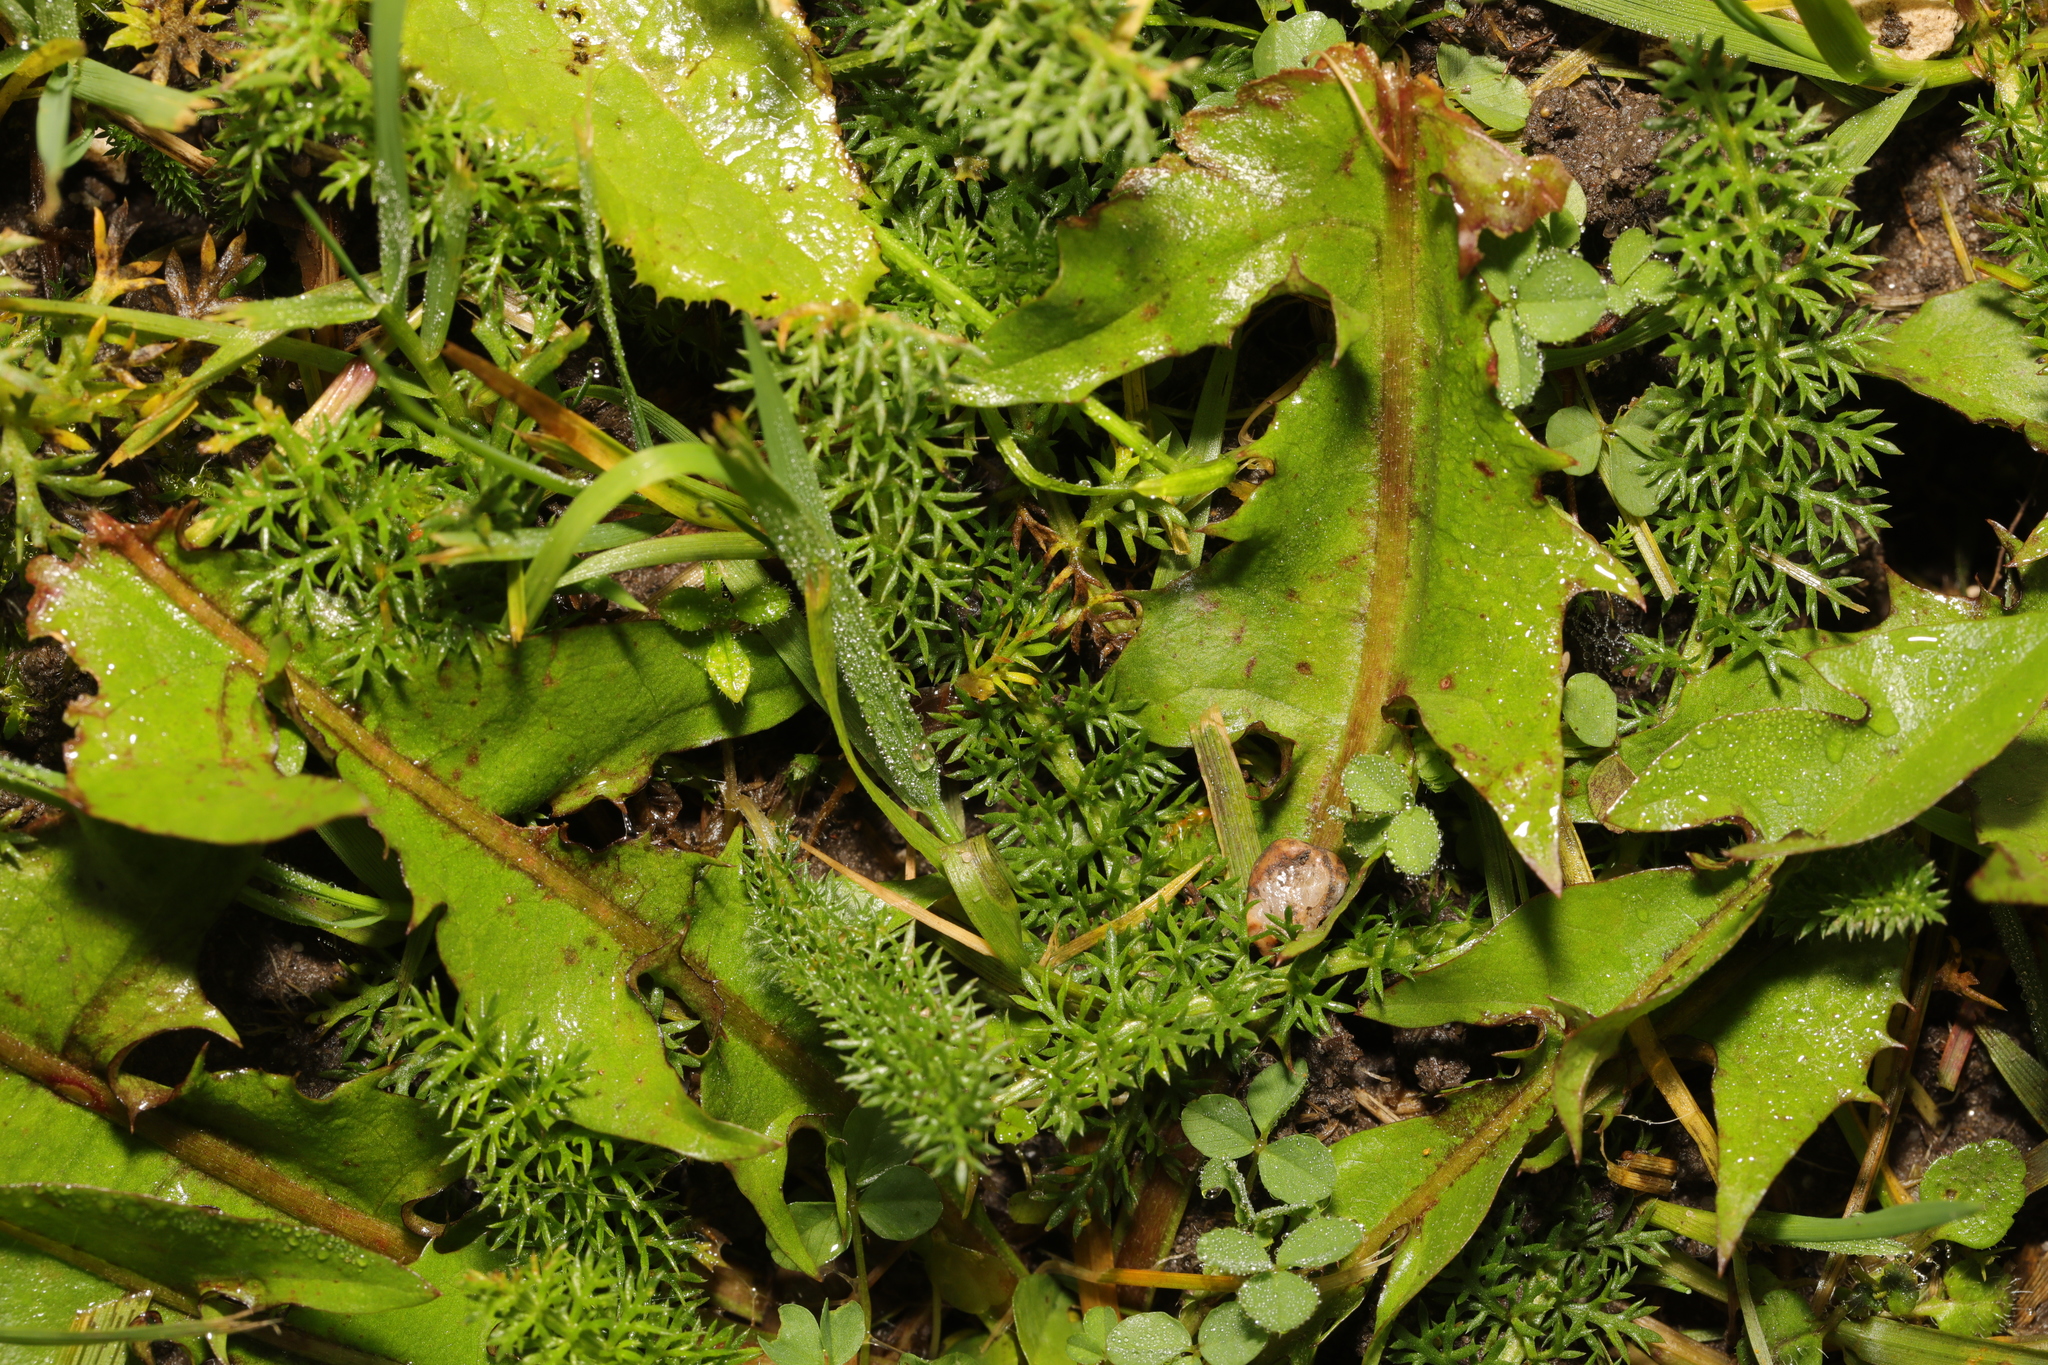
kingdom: Plantae
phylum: Tracheophyta
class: Magnoliopsida
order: Asterales
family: Asteraceae
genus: Achillea
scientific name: Achillea millefolium
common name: Yarrow
